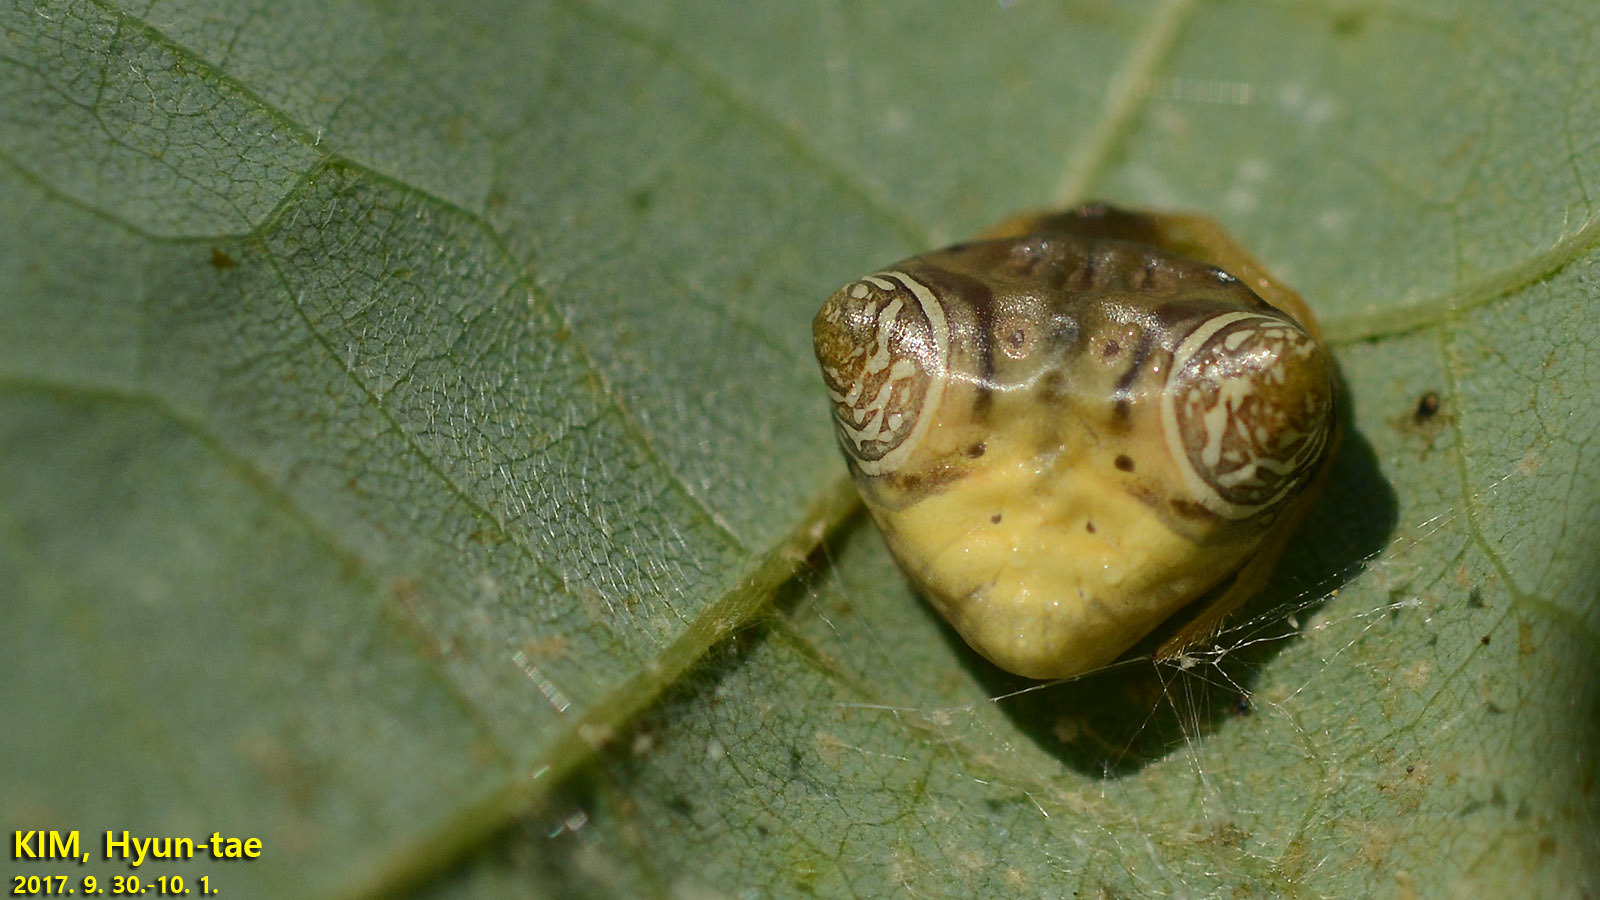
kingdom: Animalia
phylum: Arthropoda
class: Arachnida
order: Araneae
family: Araneidae
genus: Cyrtarachne
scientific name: Cyrtarachne inaequalis
